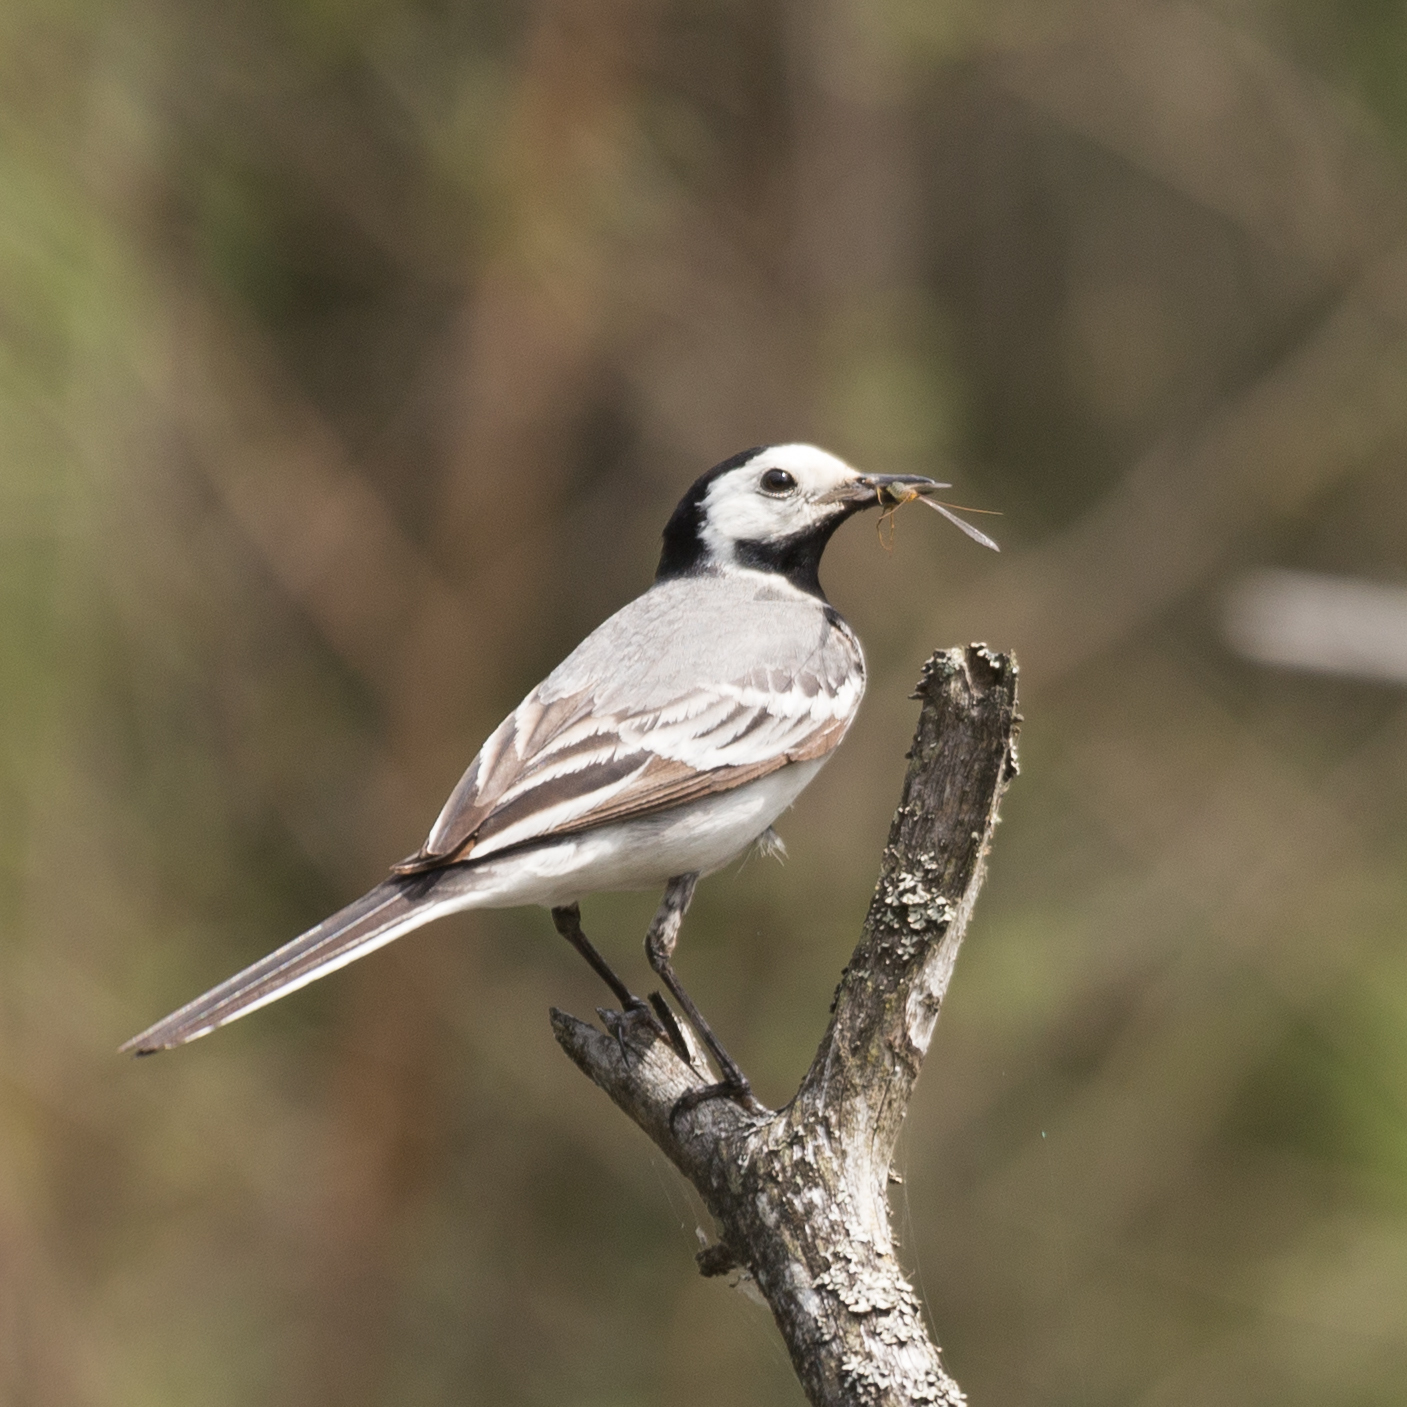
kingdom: Animalia
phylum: Chordata
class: Aves
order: Passeriformes
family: Motacillidae
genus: Motacilla
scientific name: Motacilla alba
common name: White wagtail
